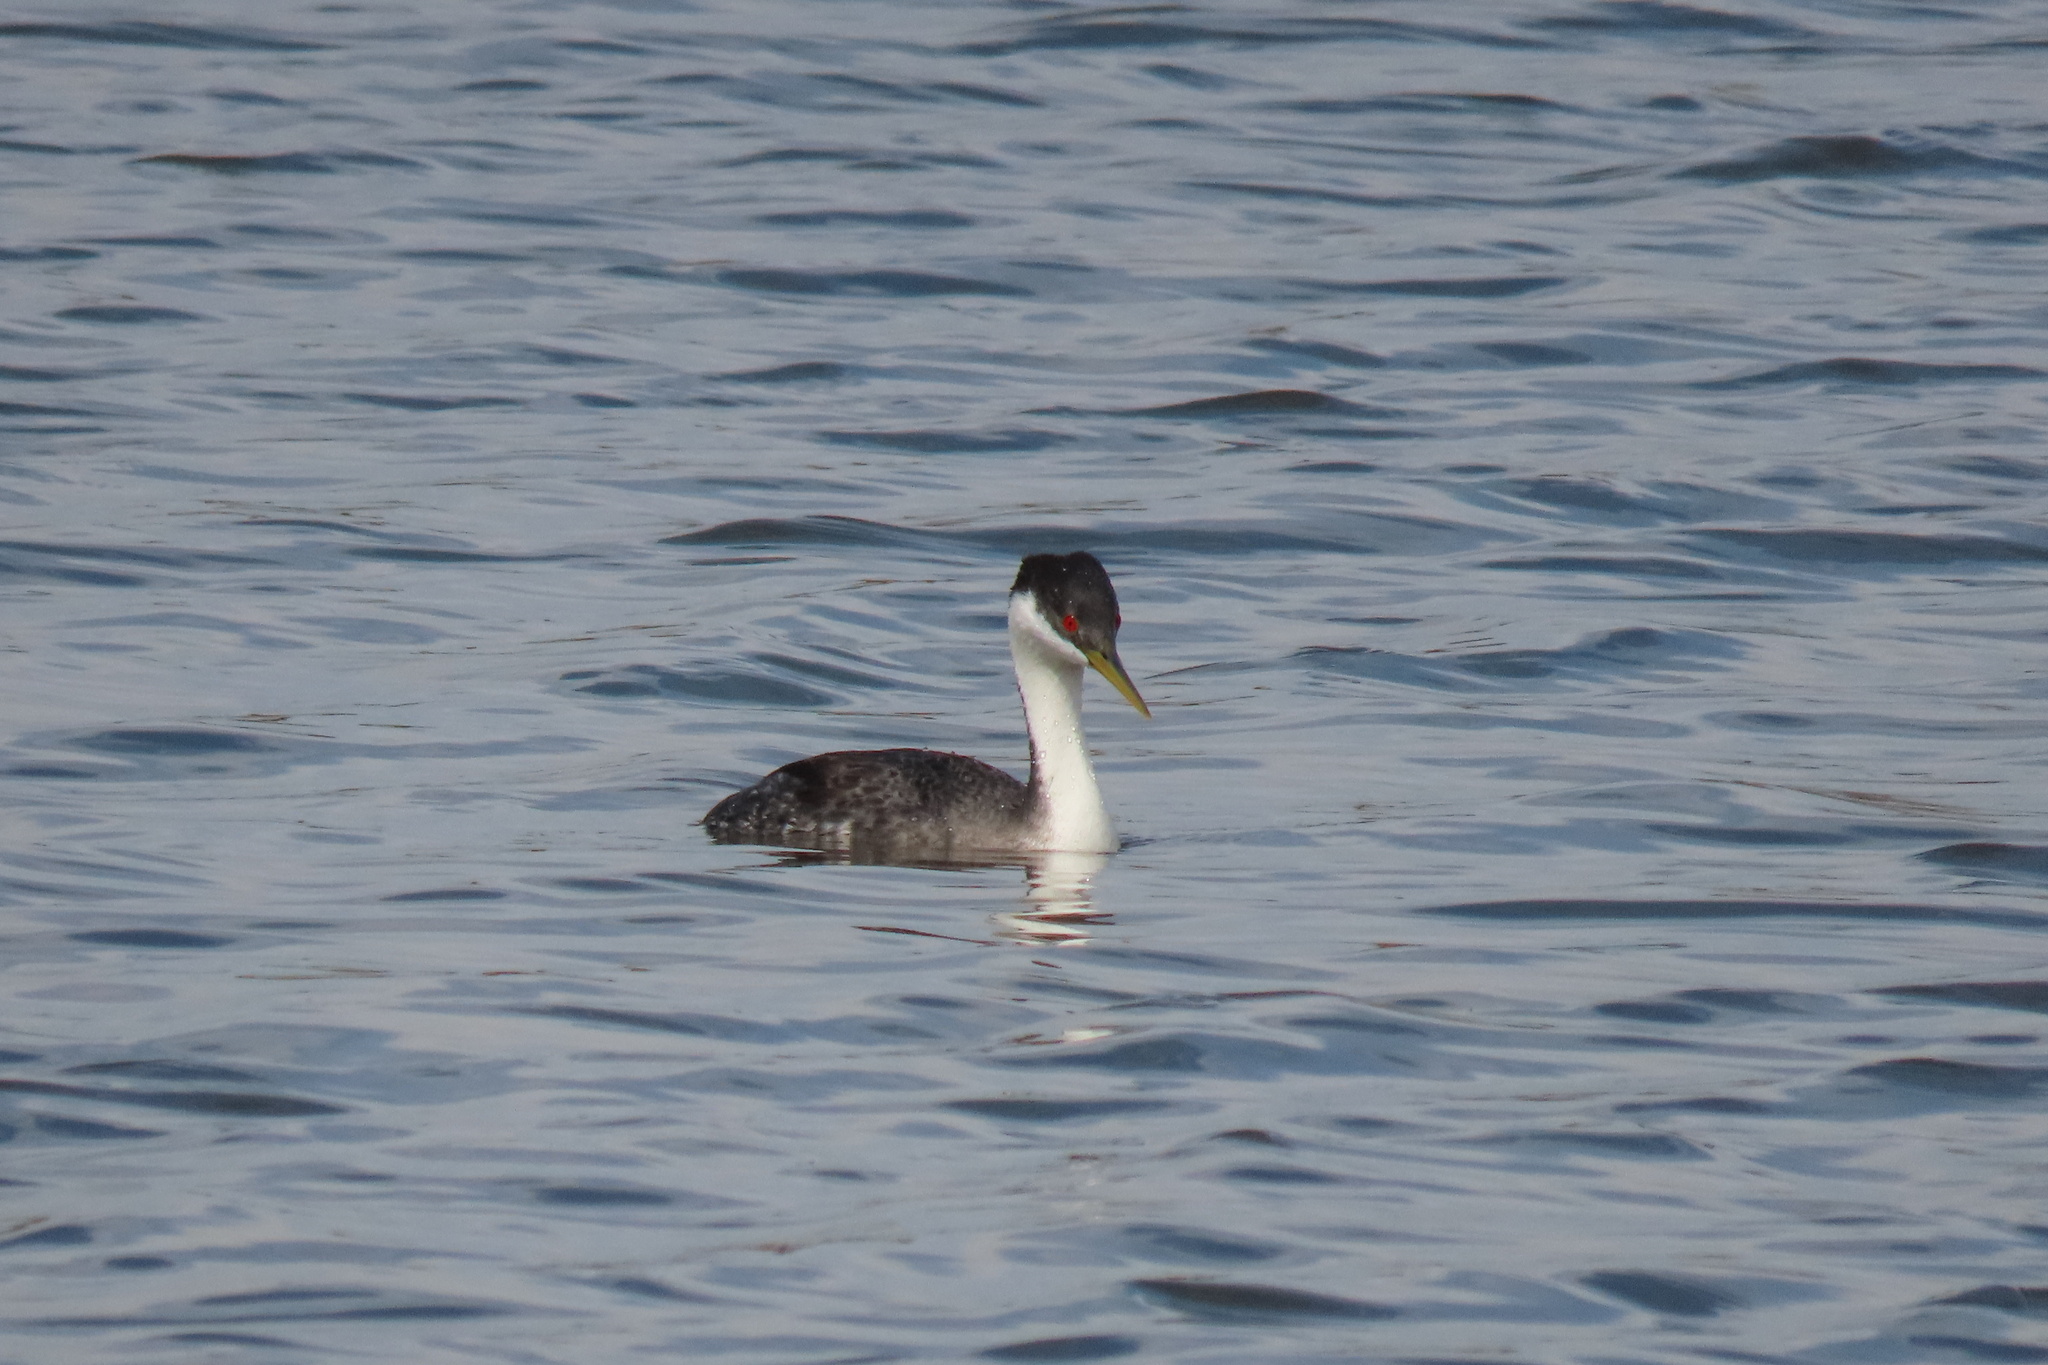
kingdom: Animalia
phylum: Chordata
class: Aves
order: Podicipediformes
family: Podicipedidae
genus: Aechmophorus
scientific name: Aechmophorus occidentalis
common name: Western grebe
